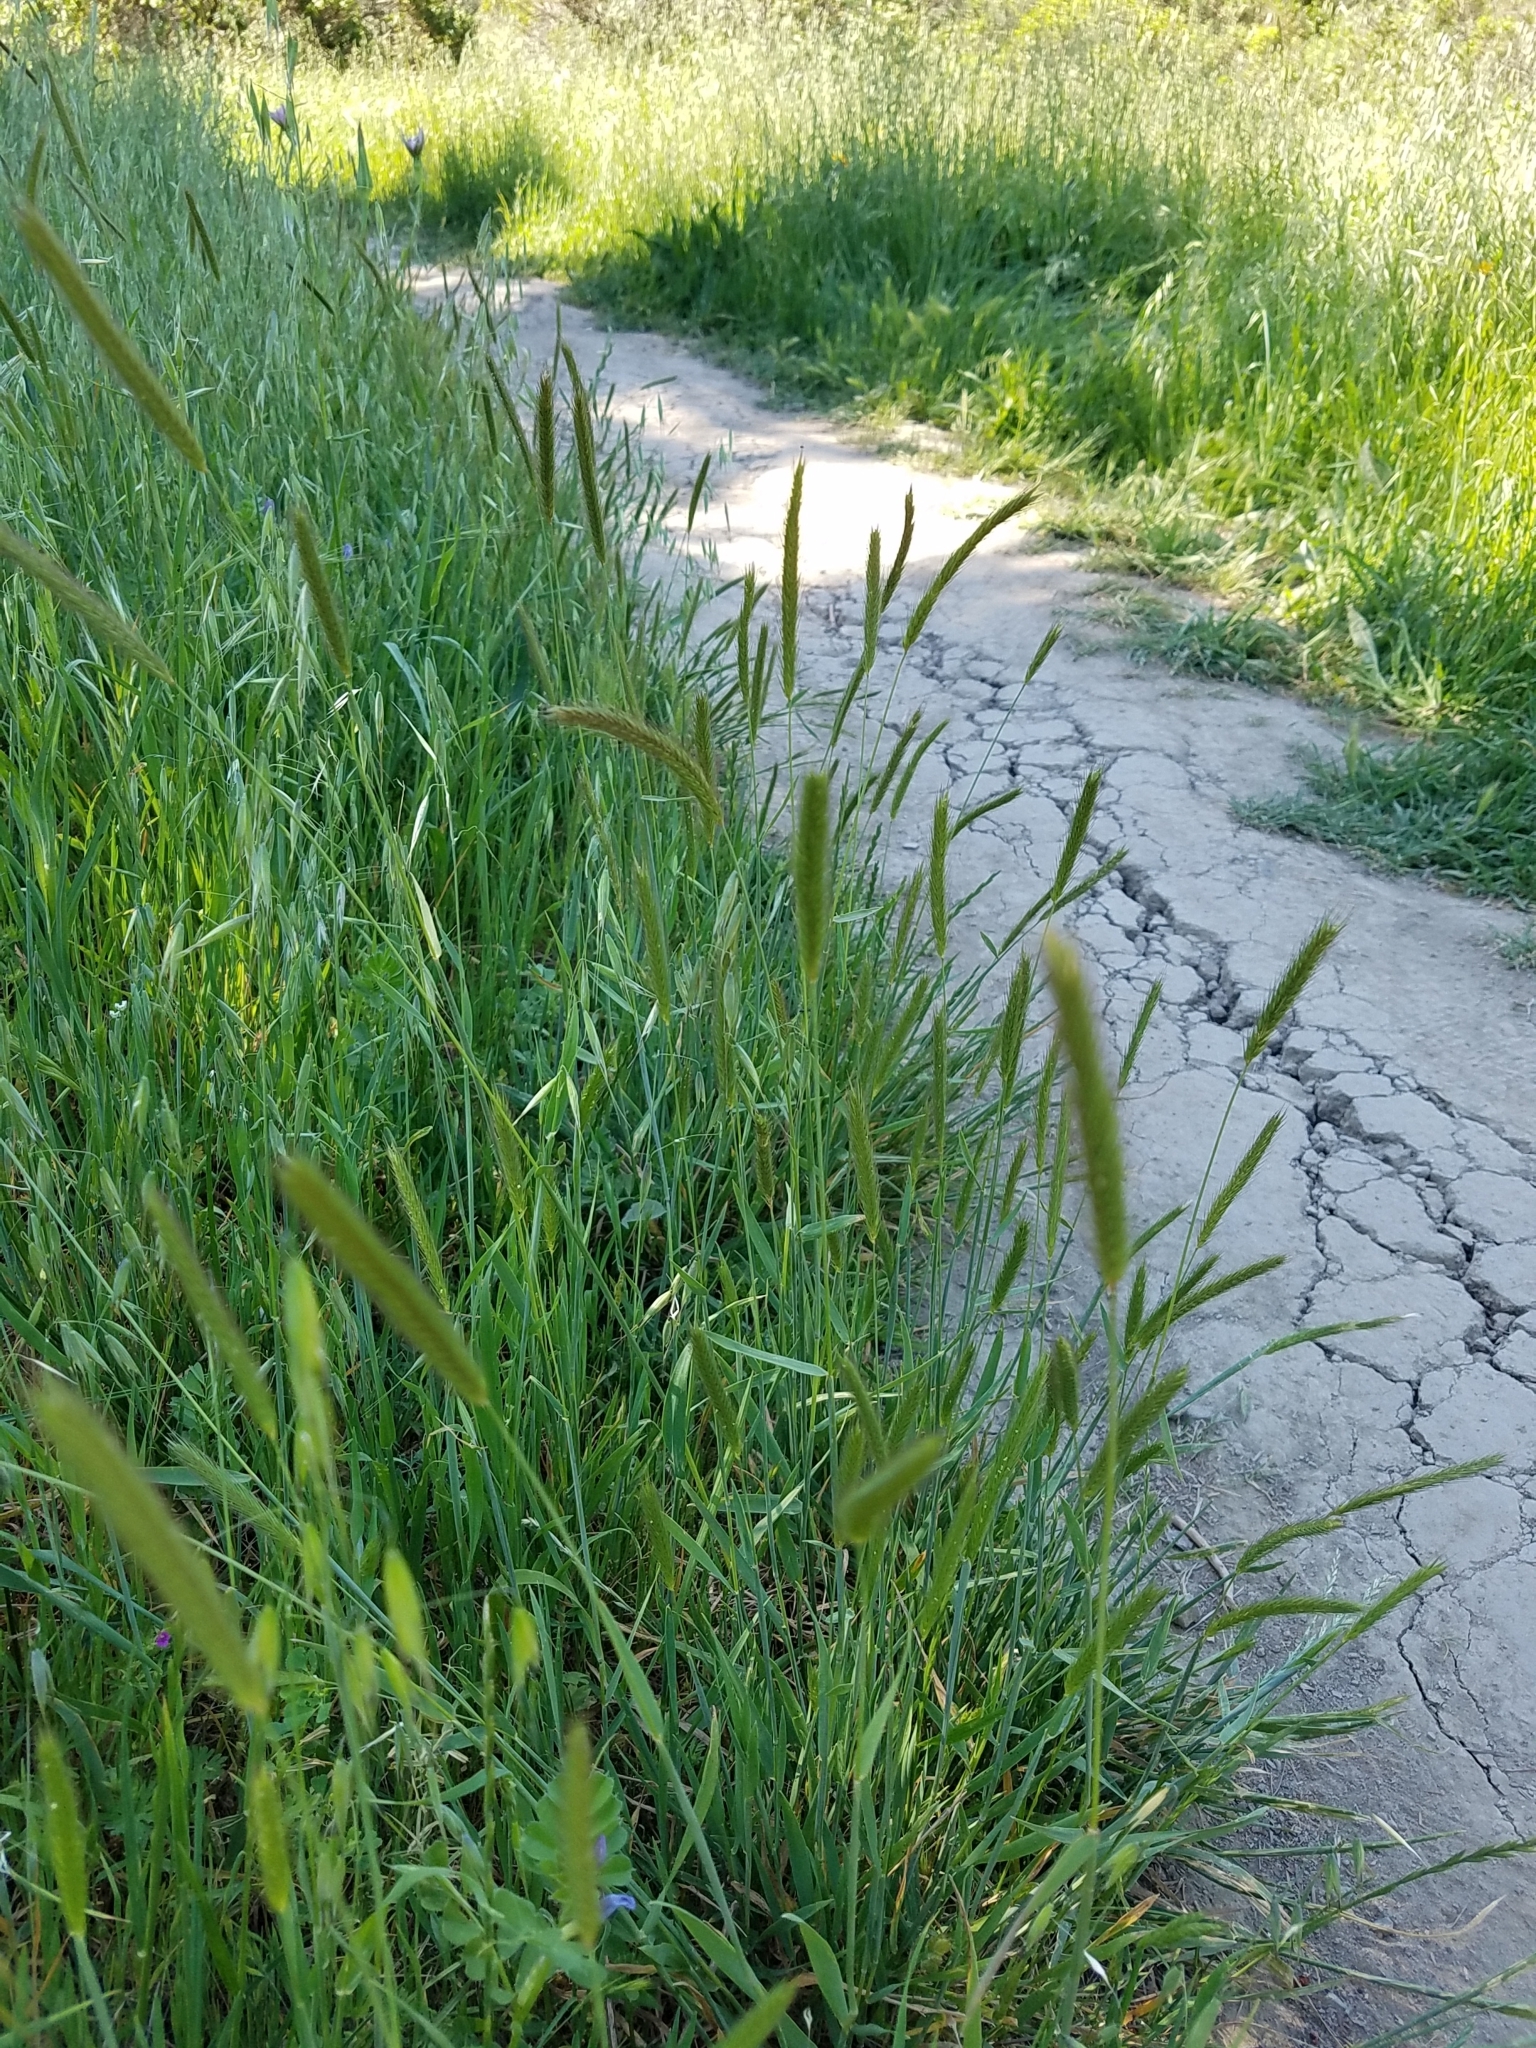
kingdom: Plantae
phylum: Tracheophyta
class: Liliopsida
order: Poales
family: Poaceae
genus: Hordeum
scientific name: Hordeum brachyantherum
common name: Meadow barley
